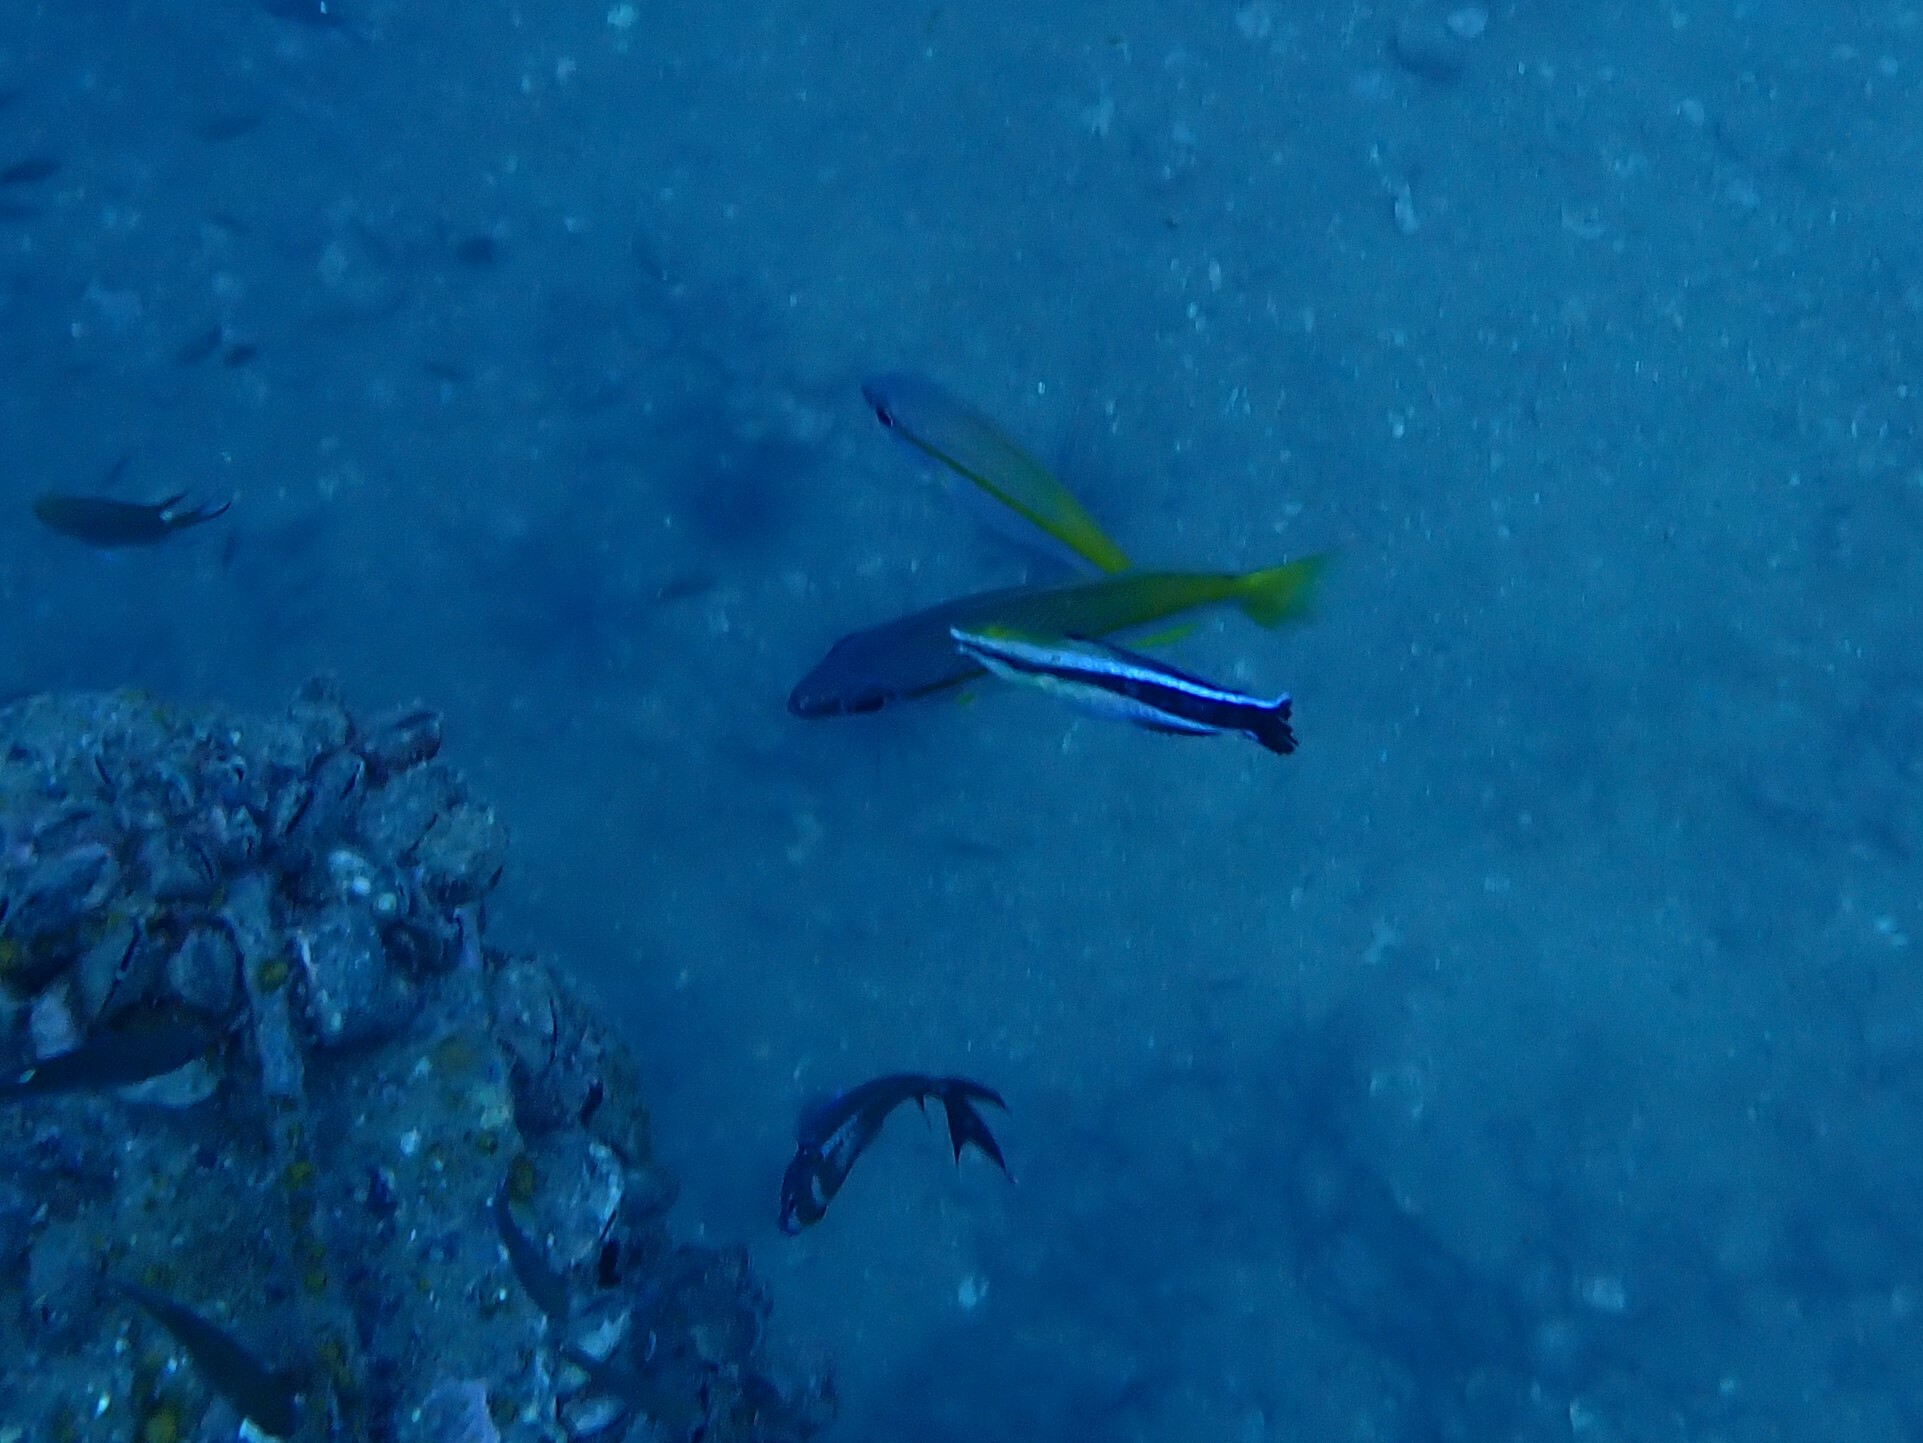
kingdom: Animalia
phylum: Chordata
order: Perciformes
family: Labridae
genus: Labroides
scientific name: Labroides dimidiatus
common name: Blue diesel wrasse
